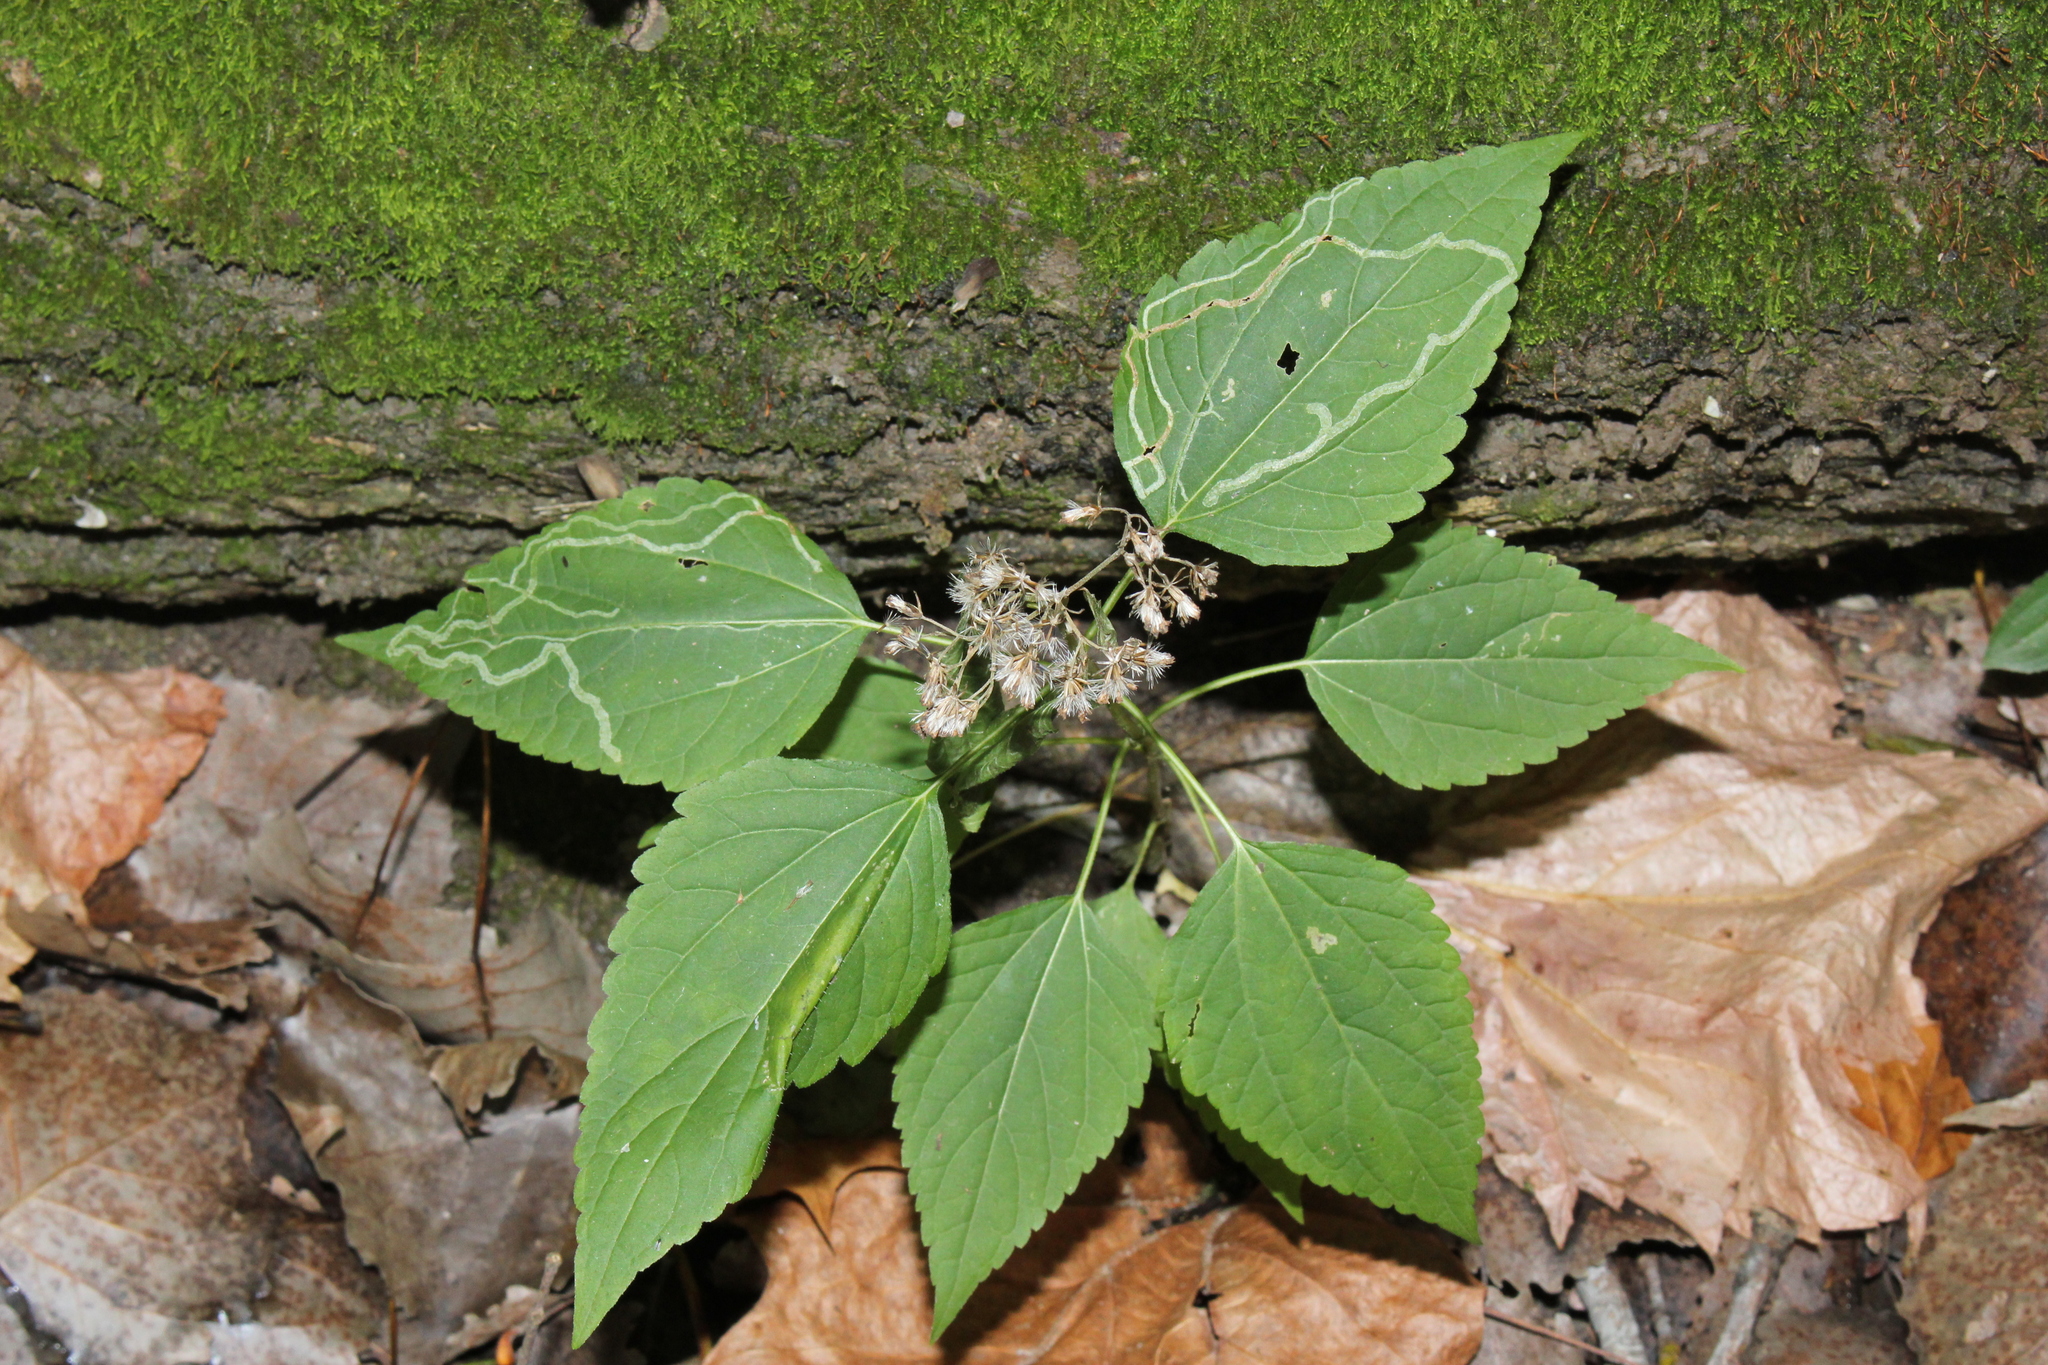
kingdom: Plantae
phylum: Tracheophyta
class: Magnoliopsida
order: Asterales
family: Asteraceae
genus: Ageratina
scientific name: Ageratina altissima
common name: White snakeroot
